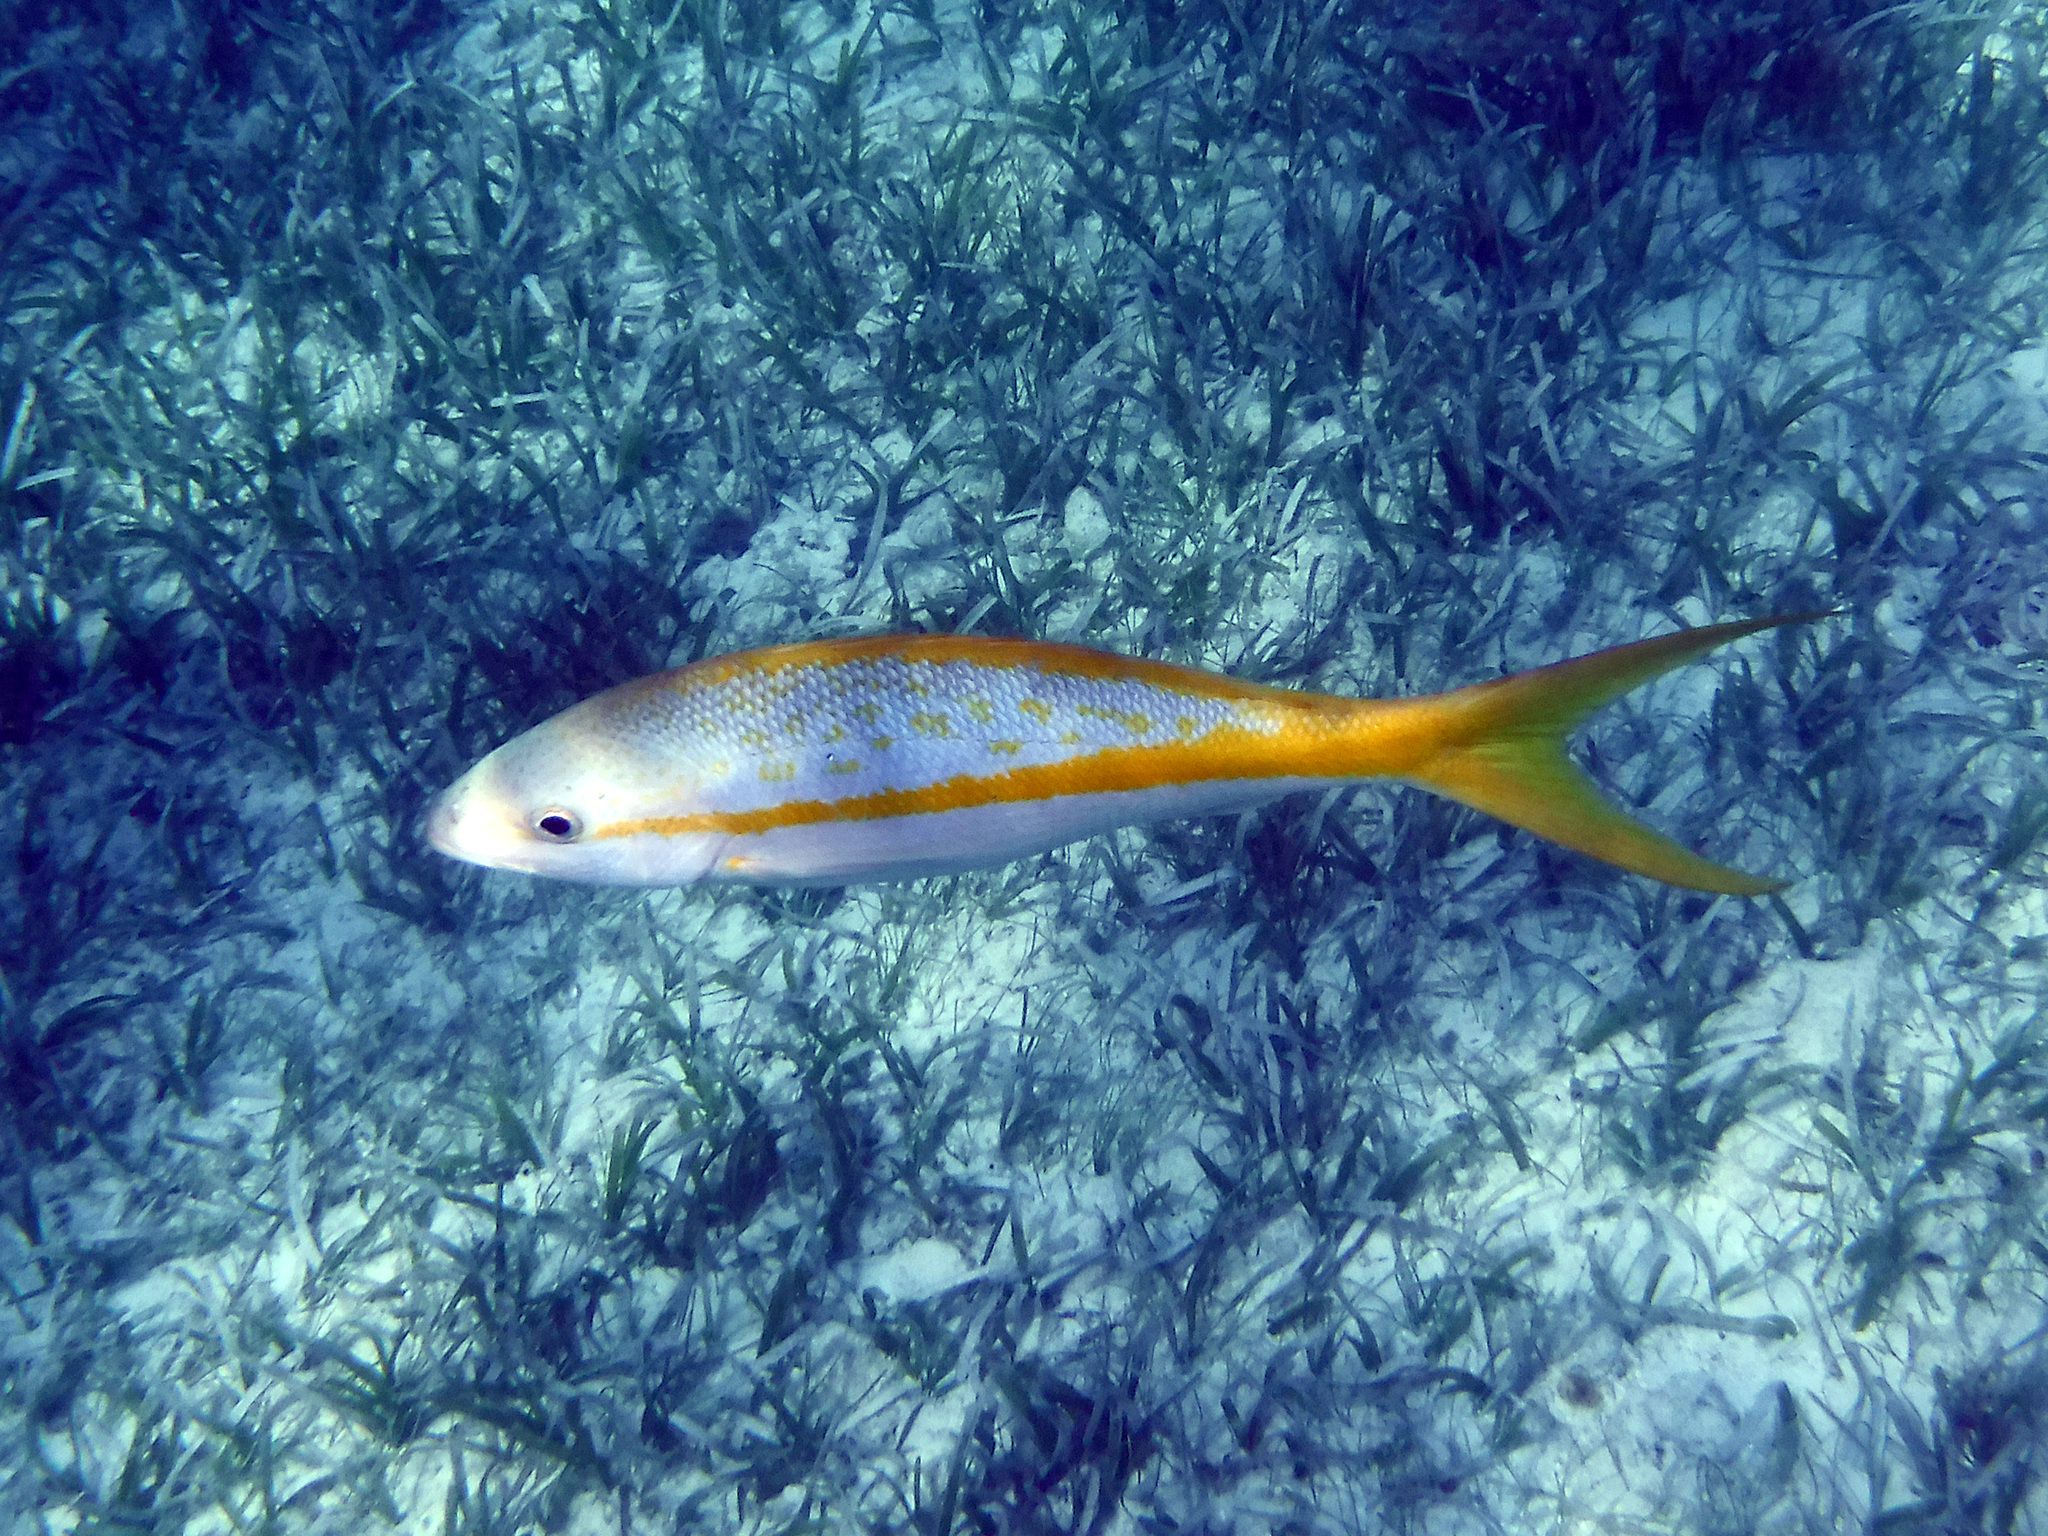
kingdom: Animalia
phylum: Chordata
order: Perciformes
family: Lutjanidae
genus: Ocyurus
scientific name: Ocyurus chrysurus
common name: Yellowtail snapper
